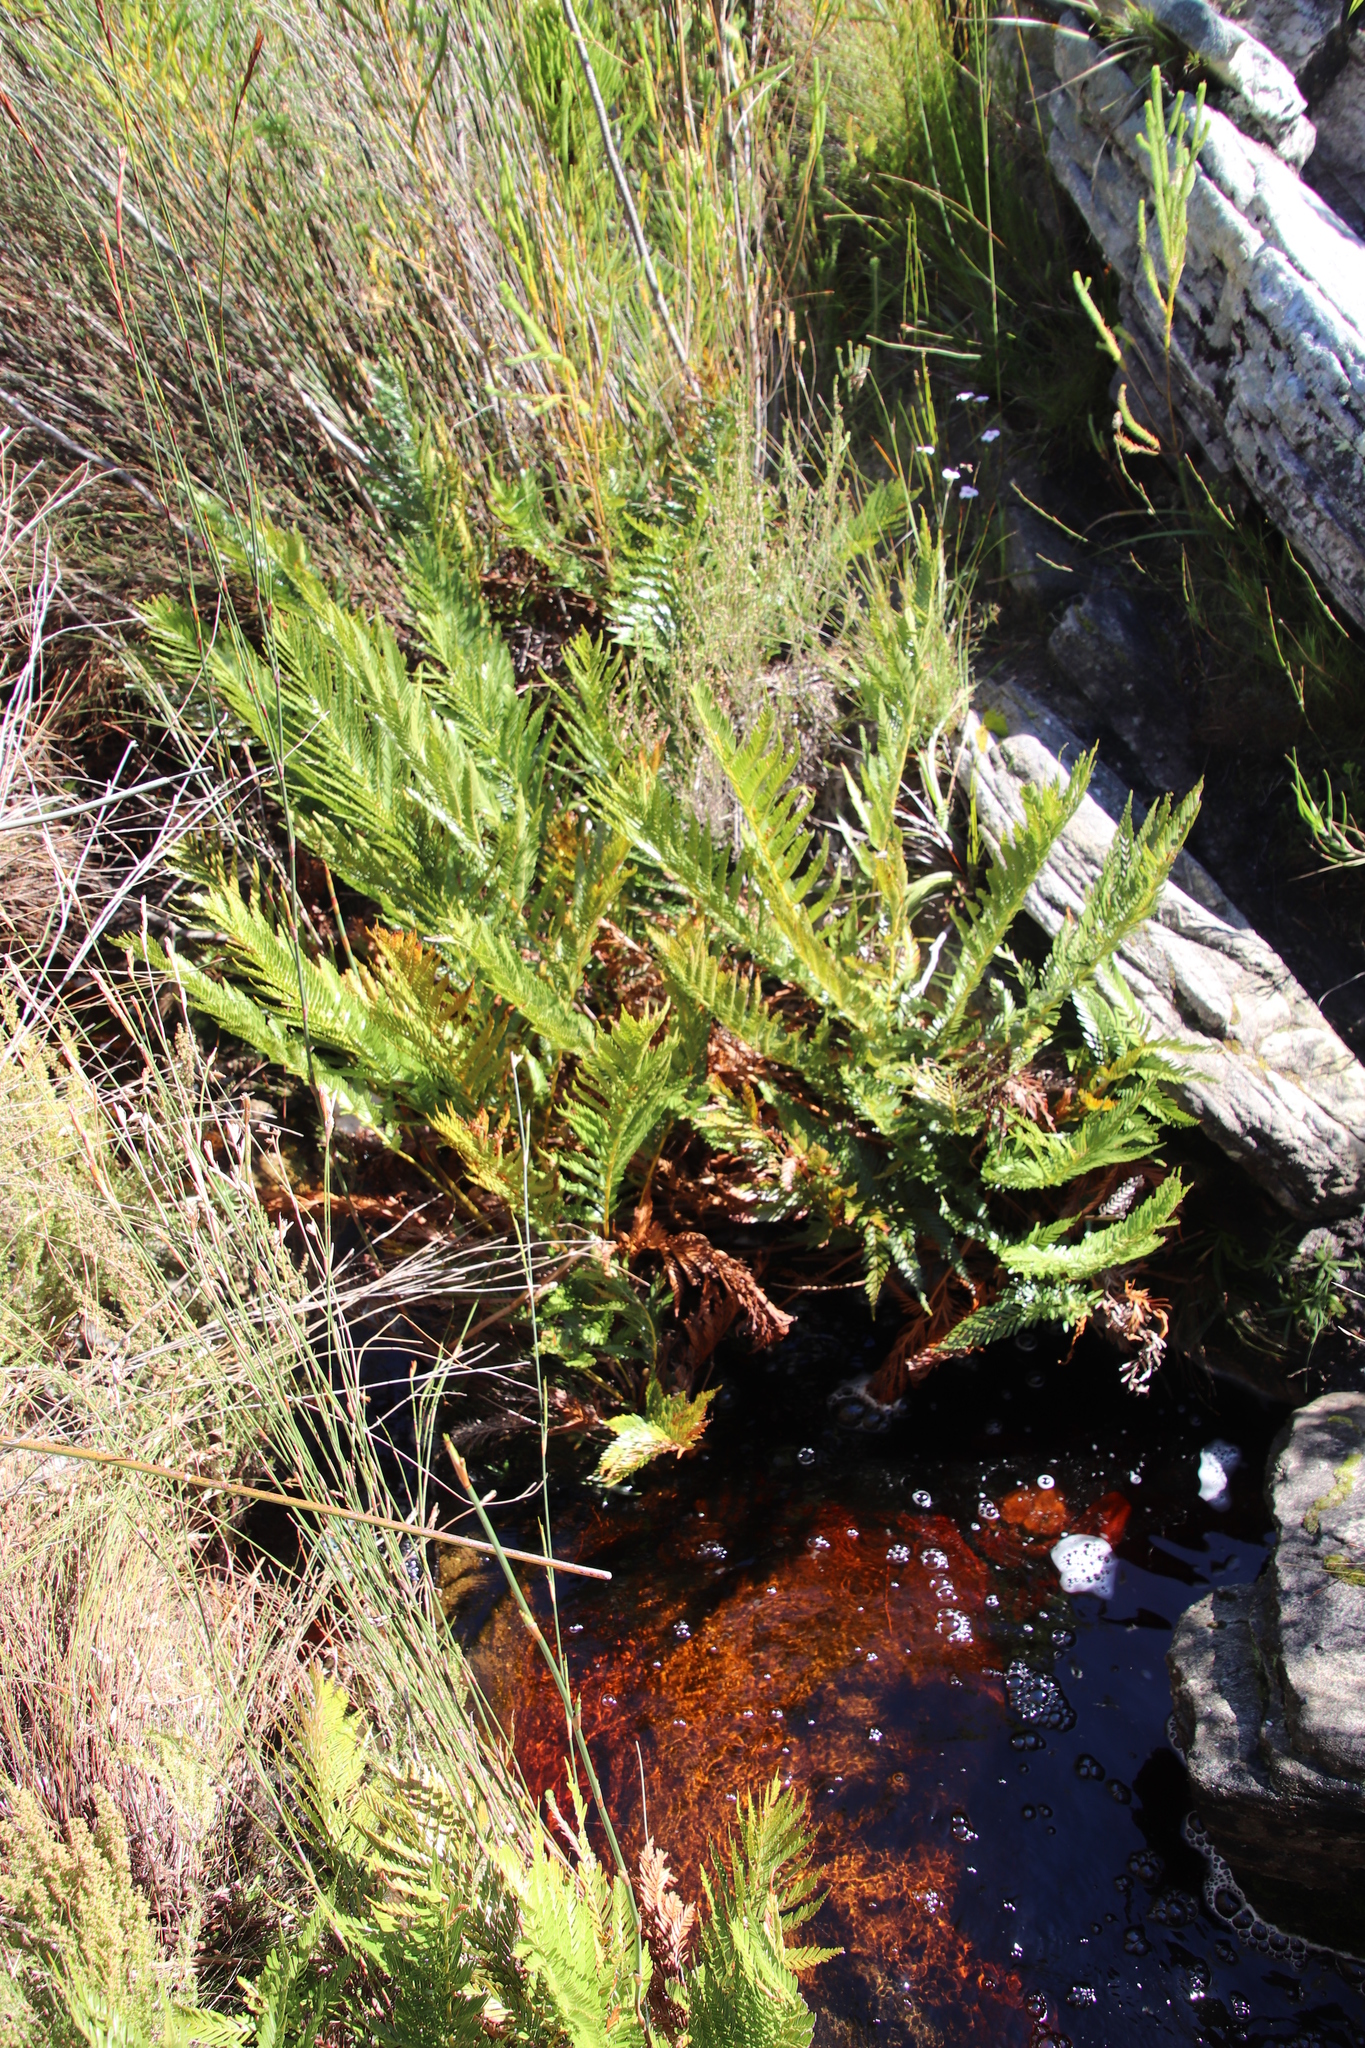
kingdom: Plantae
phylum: Tracheophyta
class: Polypodiopsida
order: Osmundales
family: Osmundaceae
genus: Todea
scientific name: Todea barbara
